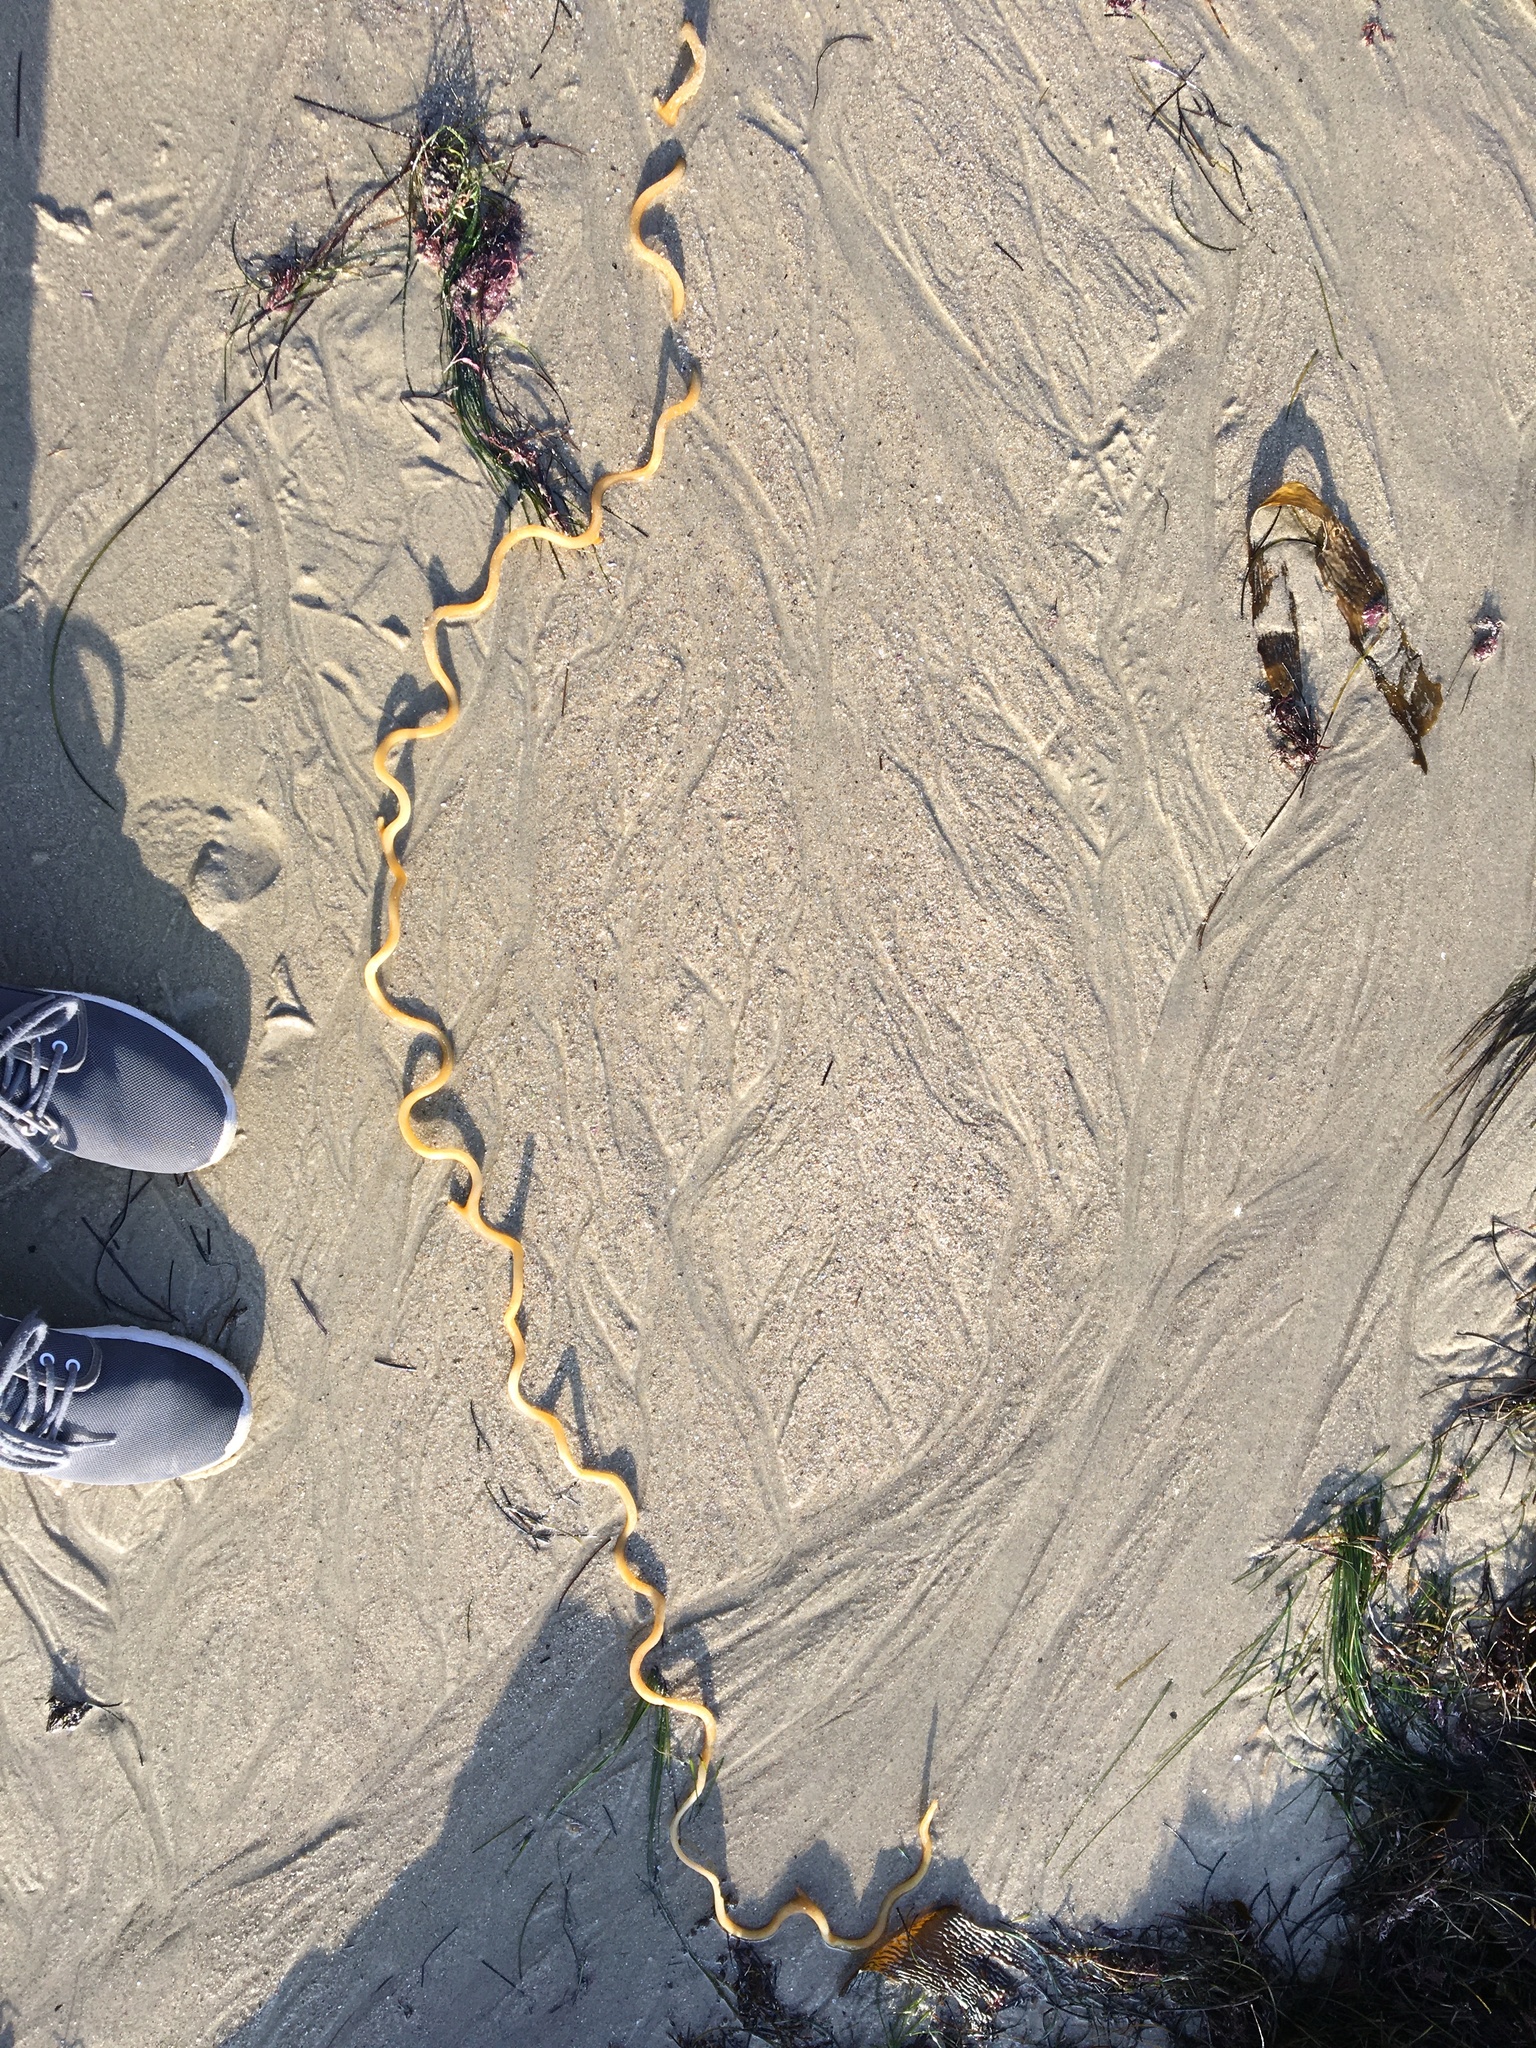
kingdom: Chromista
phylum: Ochrophyta
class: Phaeophyceae
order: Laminariales
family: Laminariaceae
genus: Macrocystis
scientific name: Macrocystis pyrifera
